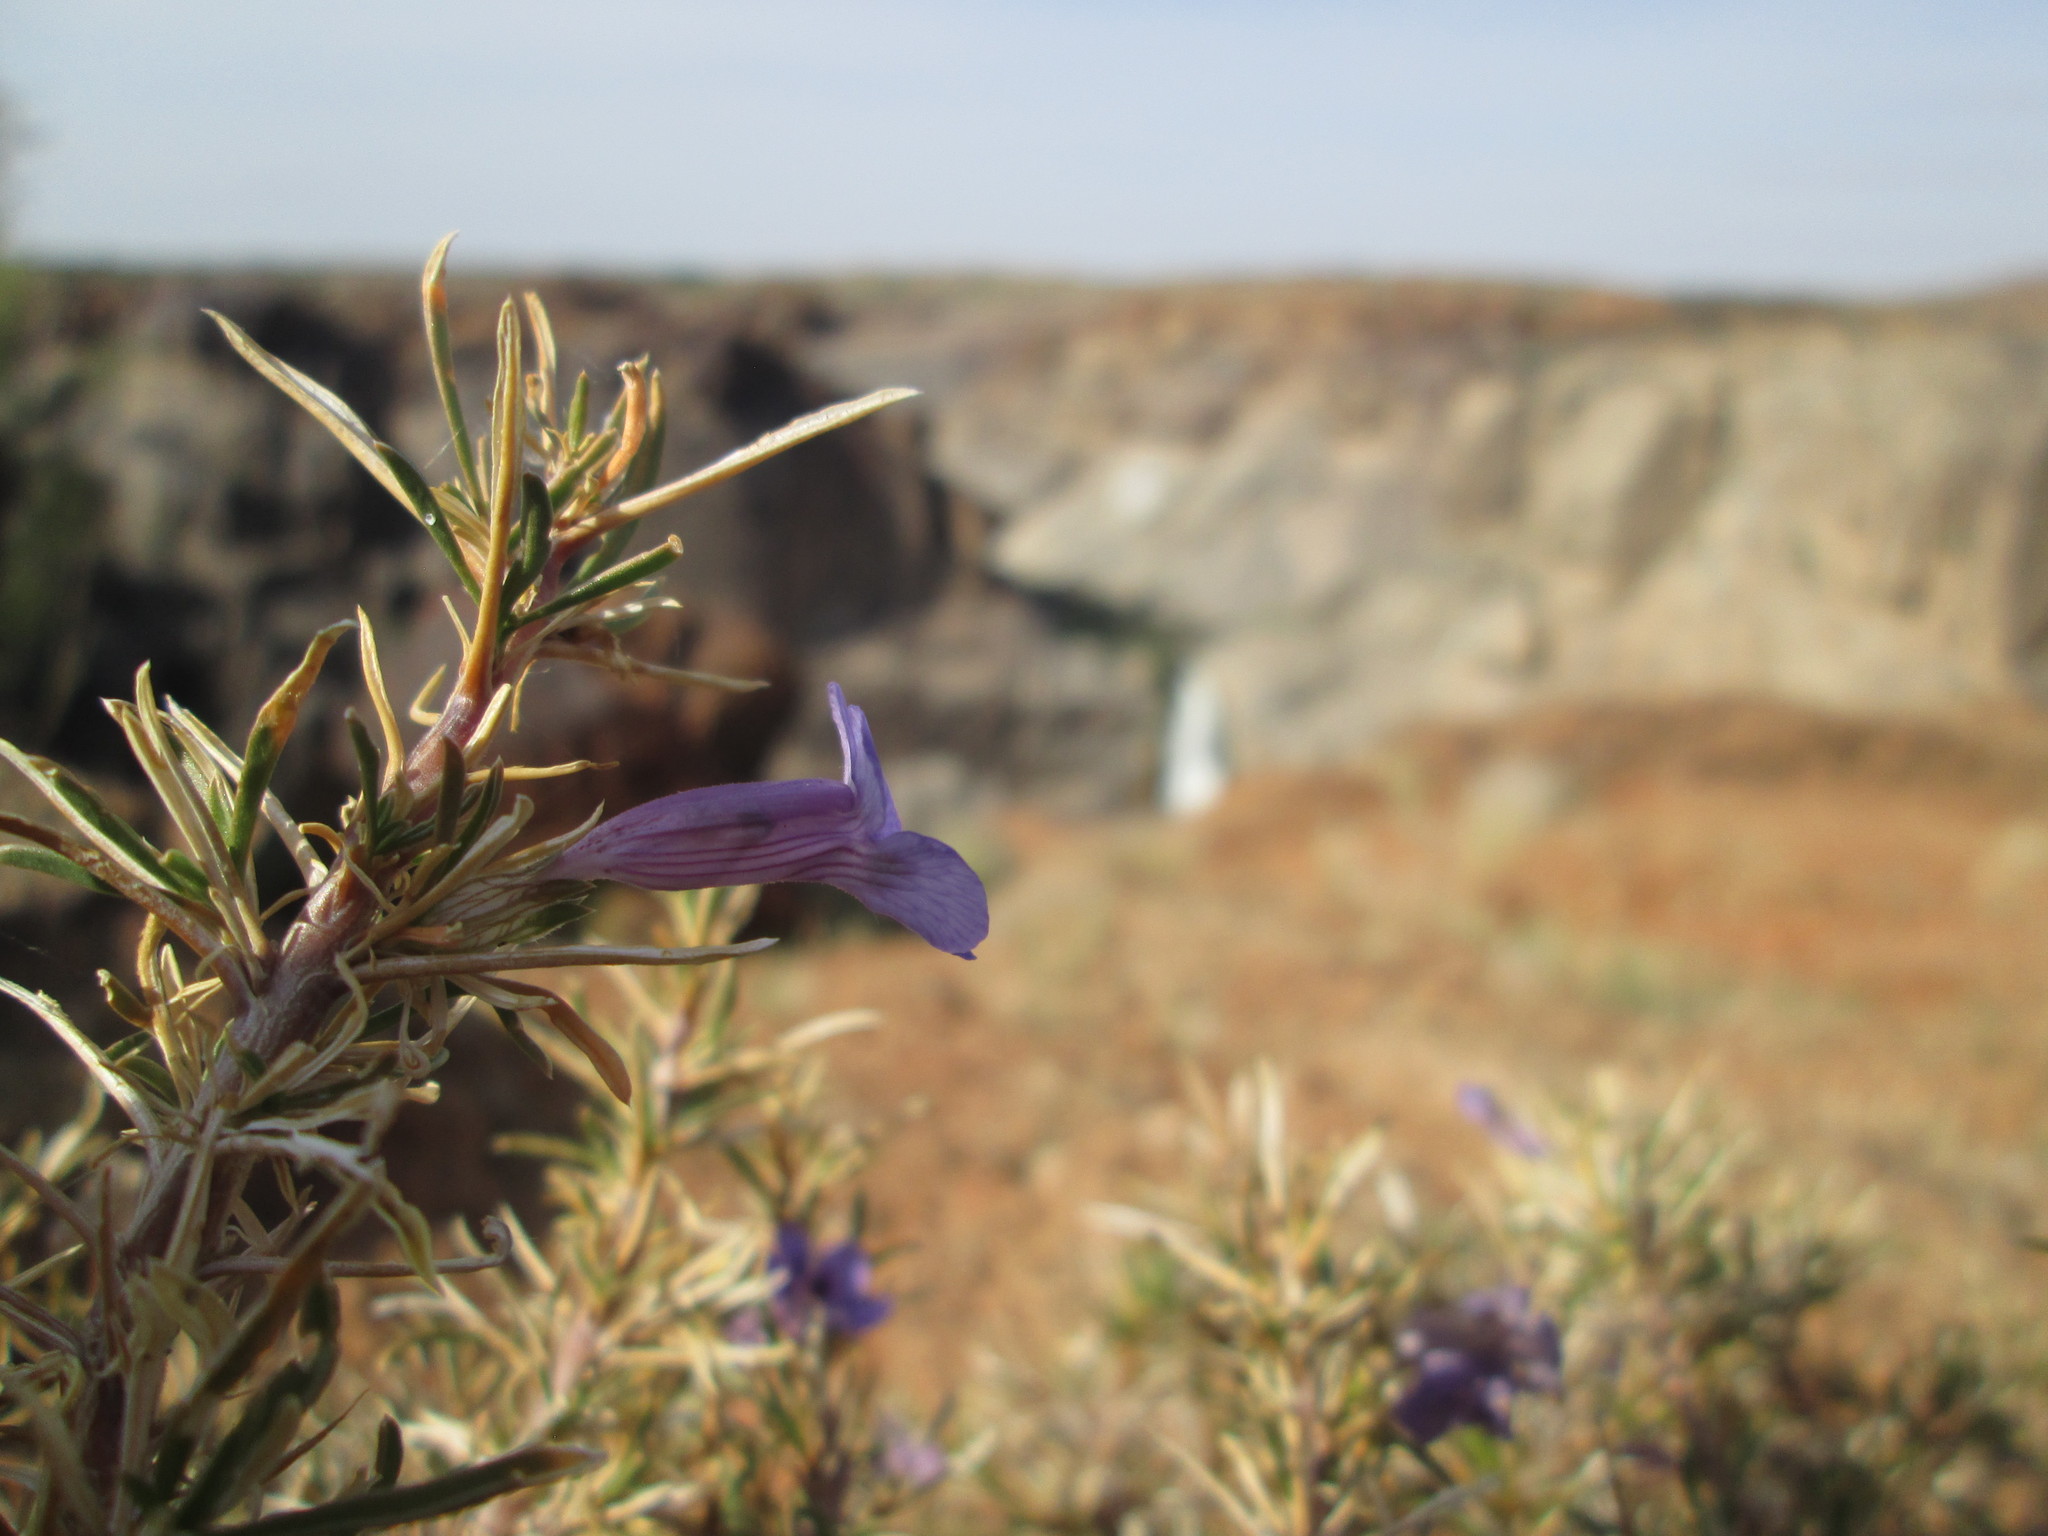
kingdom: Plantae
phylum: Tracheophyta
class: Magnoliopsida
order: Lamiales
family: Scrophulariaceae
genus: Aptosimum
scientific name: Aptosimum spinescens
